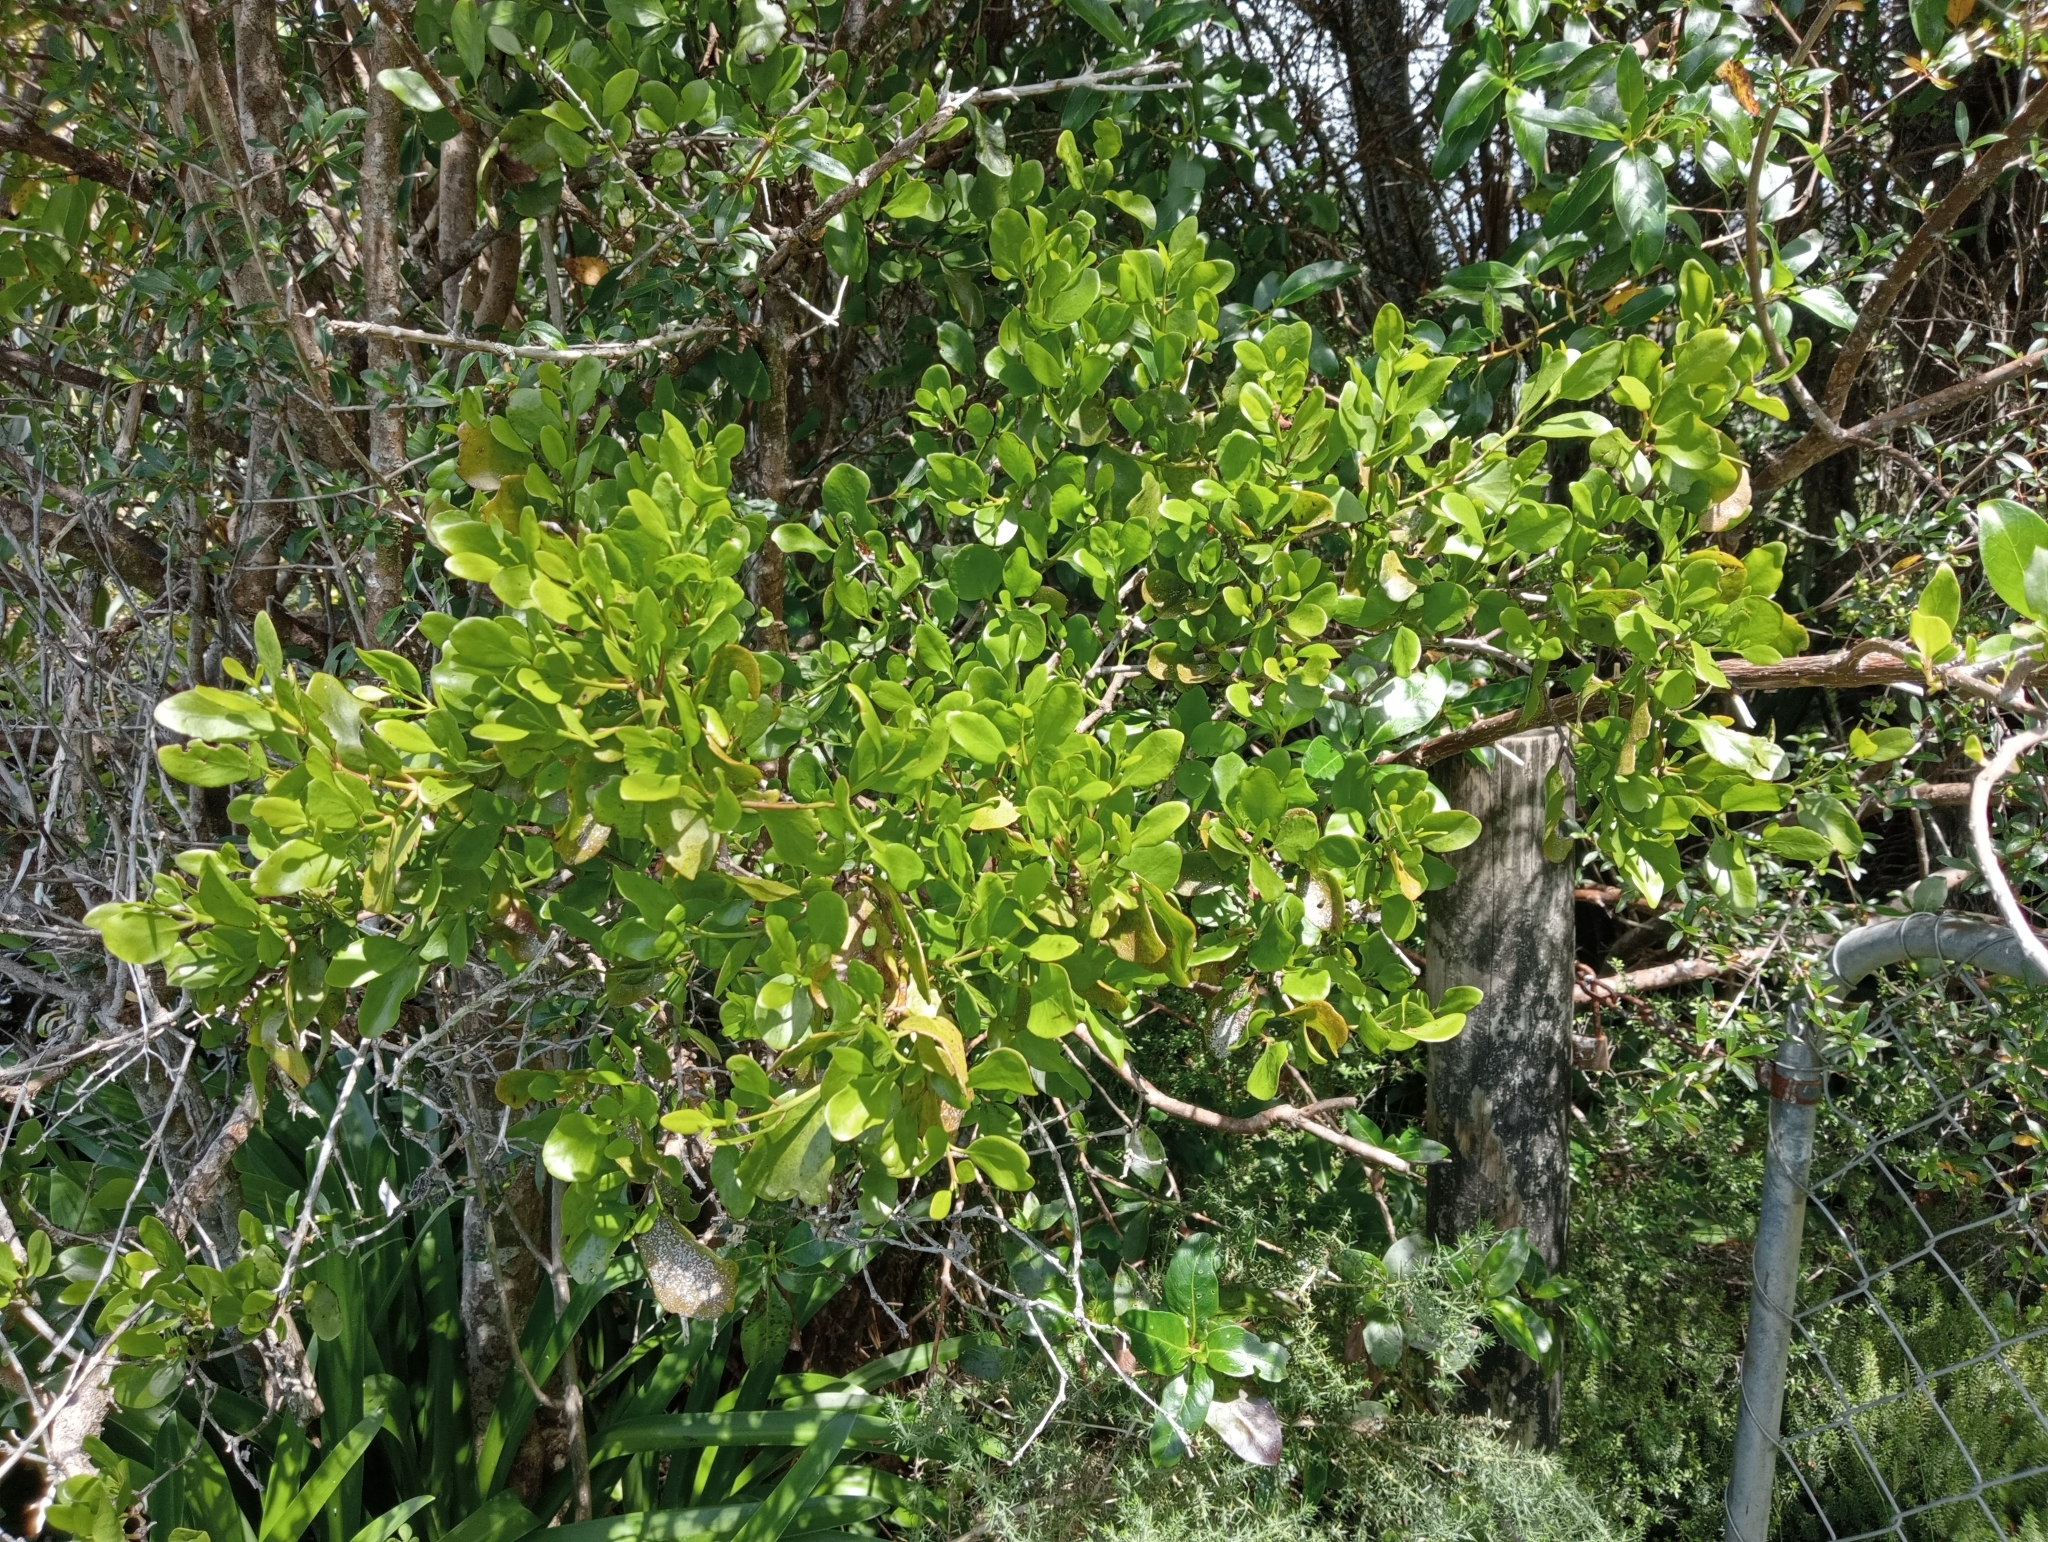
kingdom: Plantae
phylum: Tracheophyta
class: Magnoliopsida
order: Santalales
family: Loranthaceae
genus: Ileostylus
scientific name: Ileostylus micranthus
